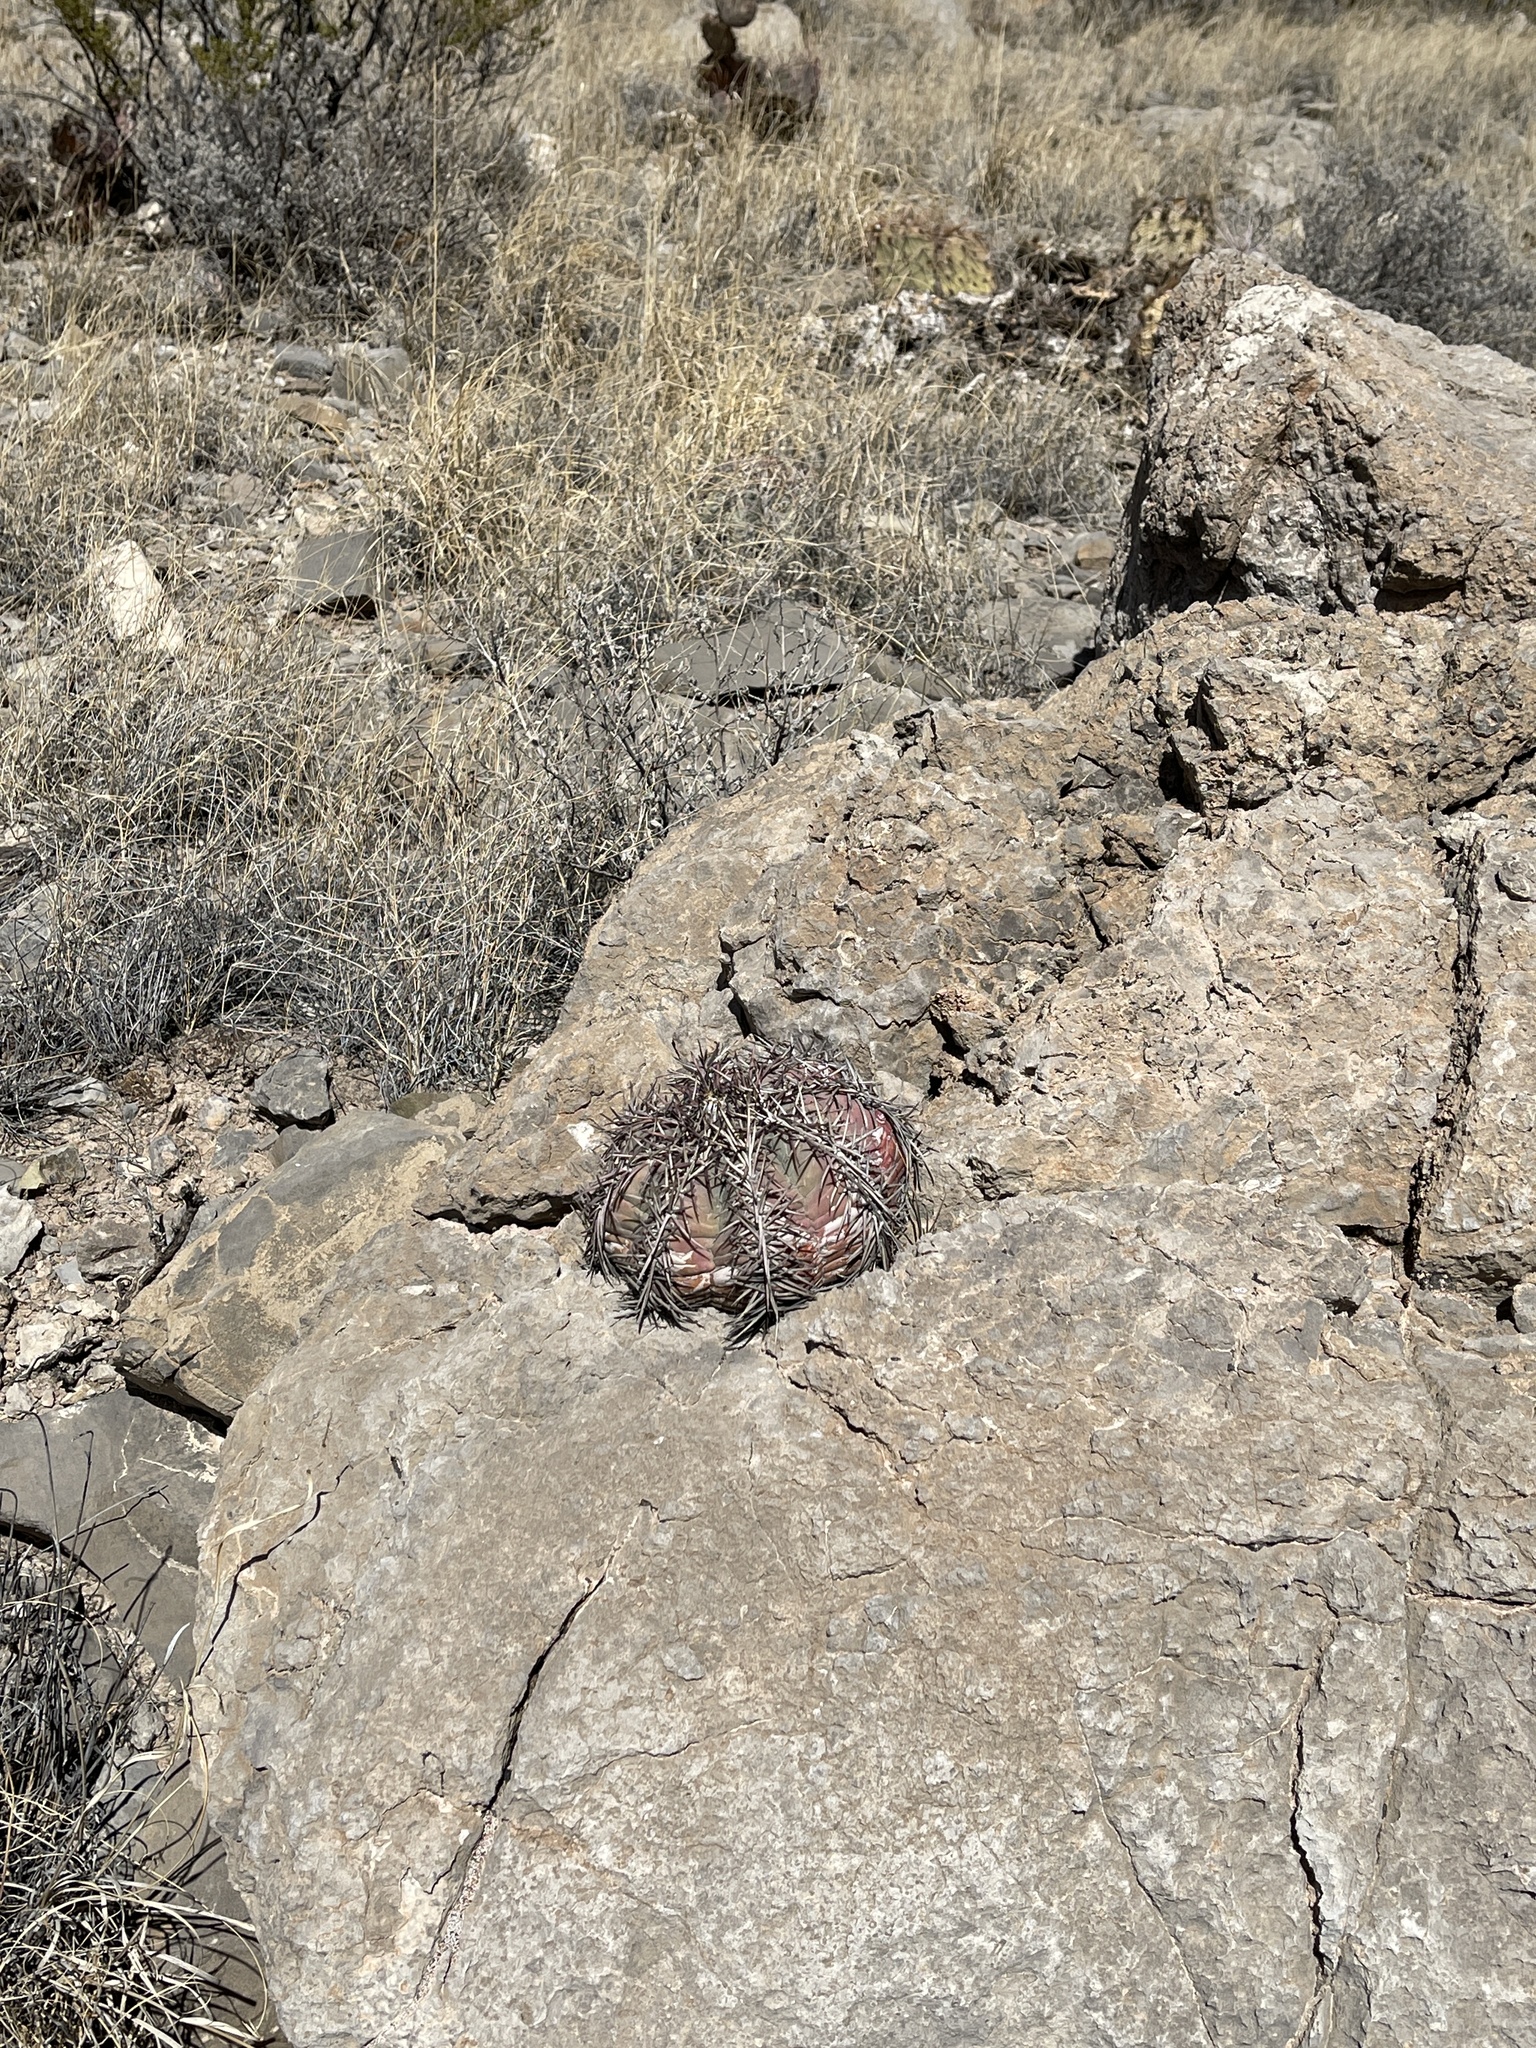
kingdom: Plantae
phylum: Tracheophyta
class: Magnoliopsida
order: Caryophyllales
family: Cactaceae
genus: Echinocactus
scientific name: Echinocactus horizonthalonius
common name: Devilshead
